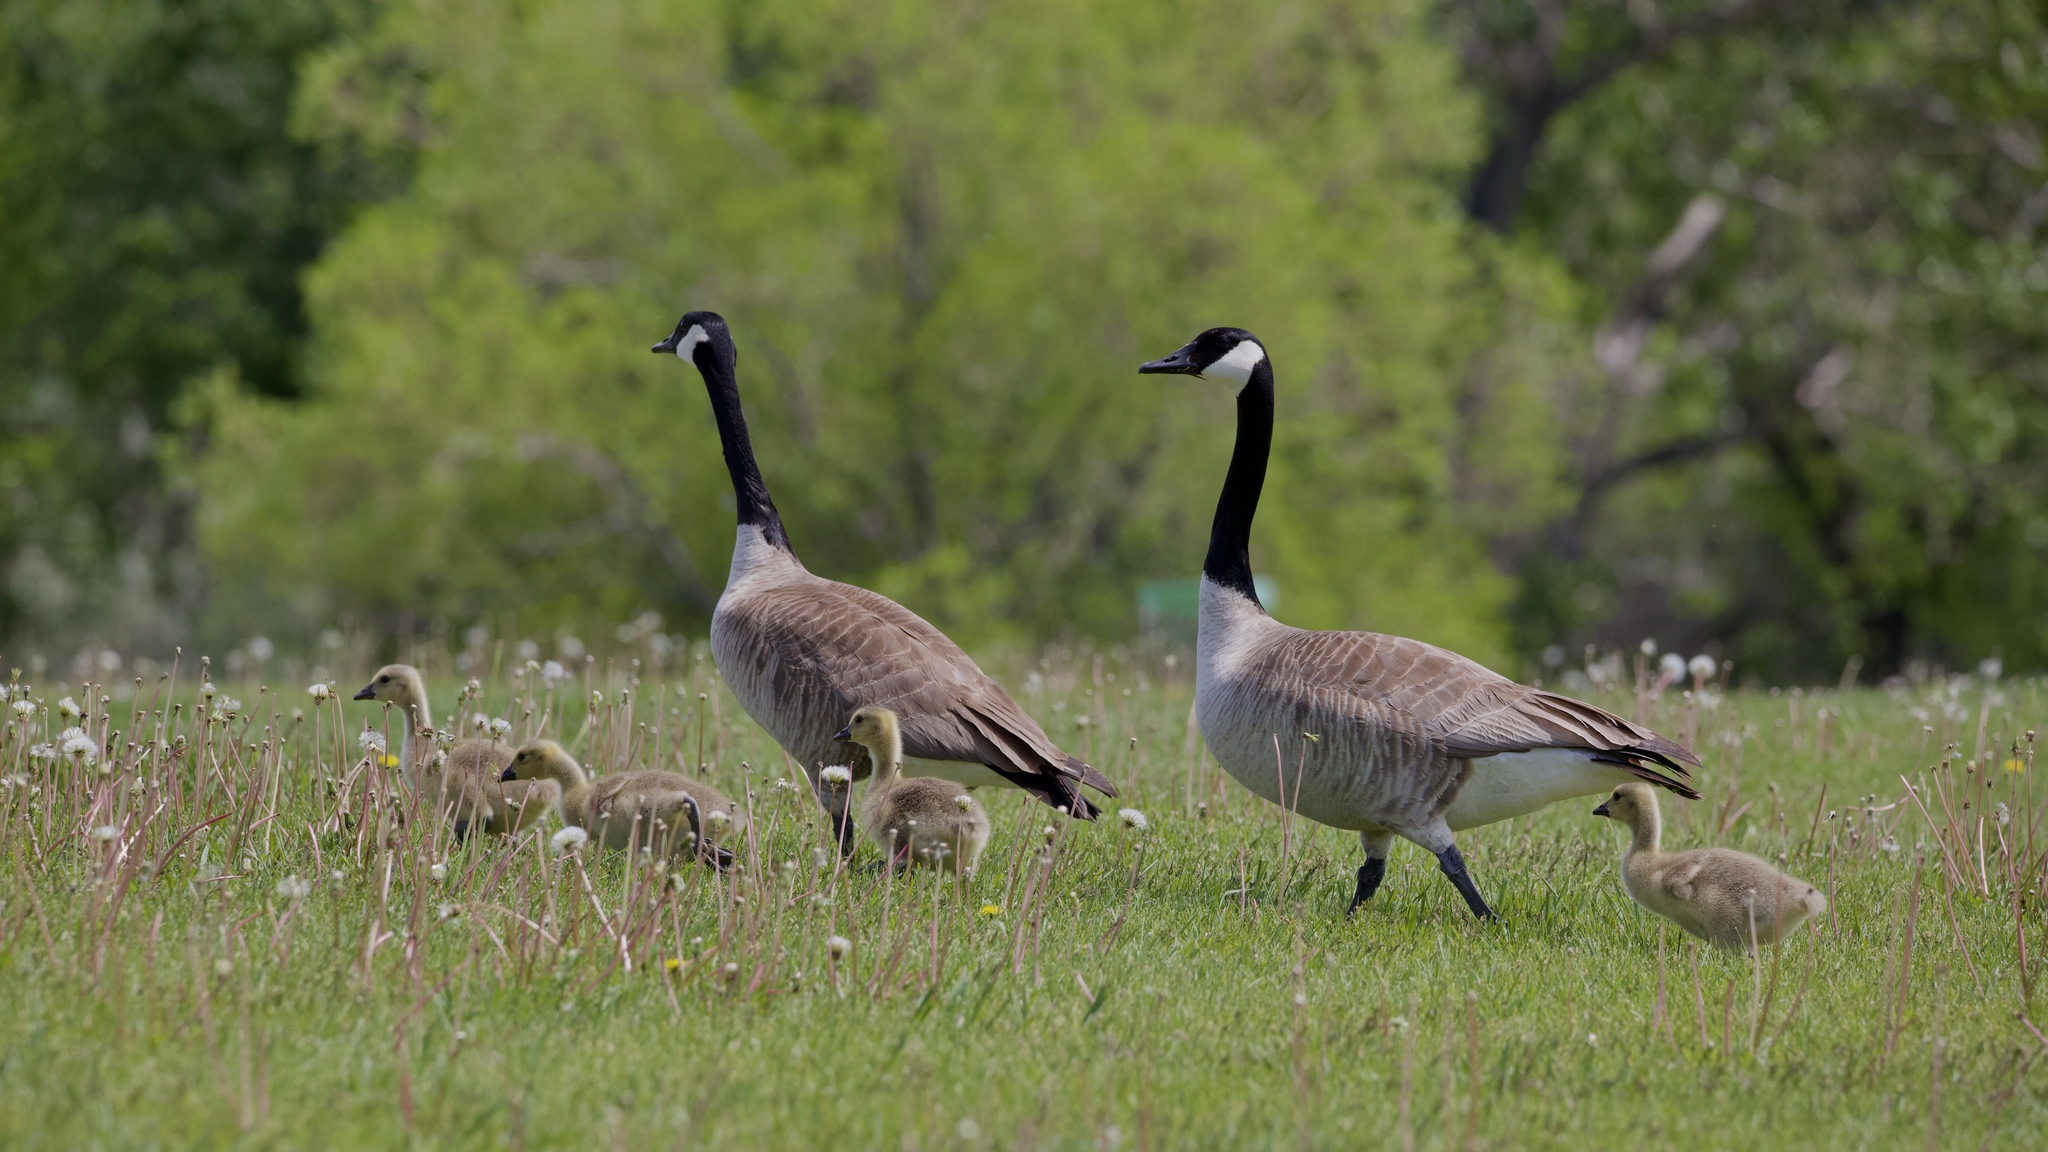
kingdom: Animalia
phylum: Chordata
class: Aves
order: Anseriformes
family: Anatidae
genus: Branta
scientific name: Branta canadensis
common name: Canada goose
